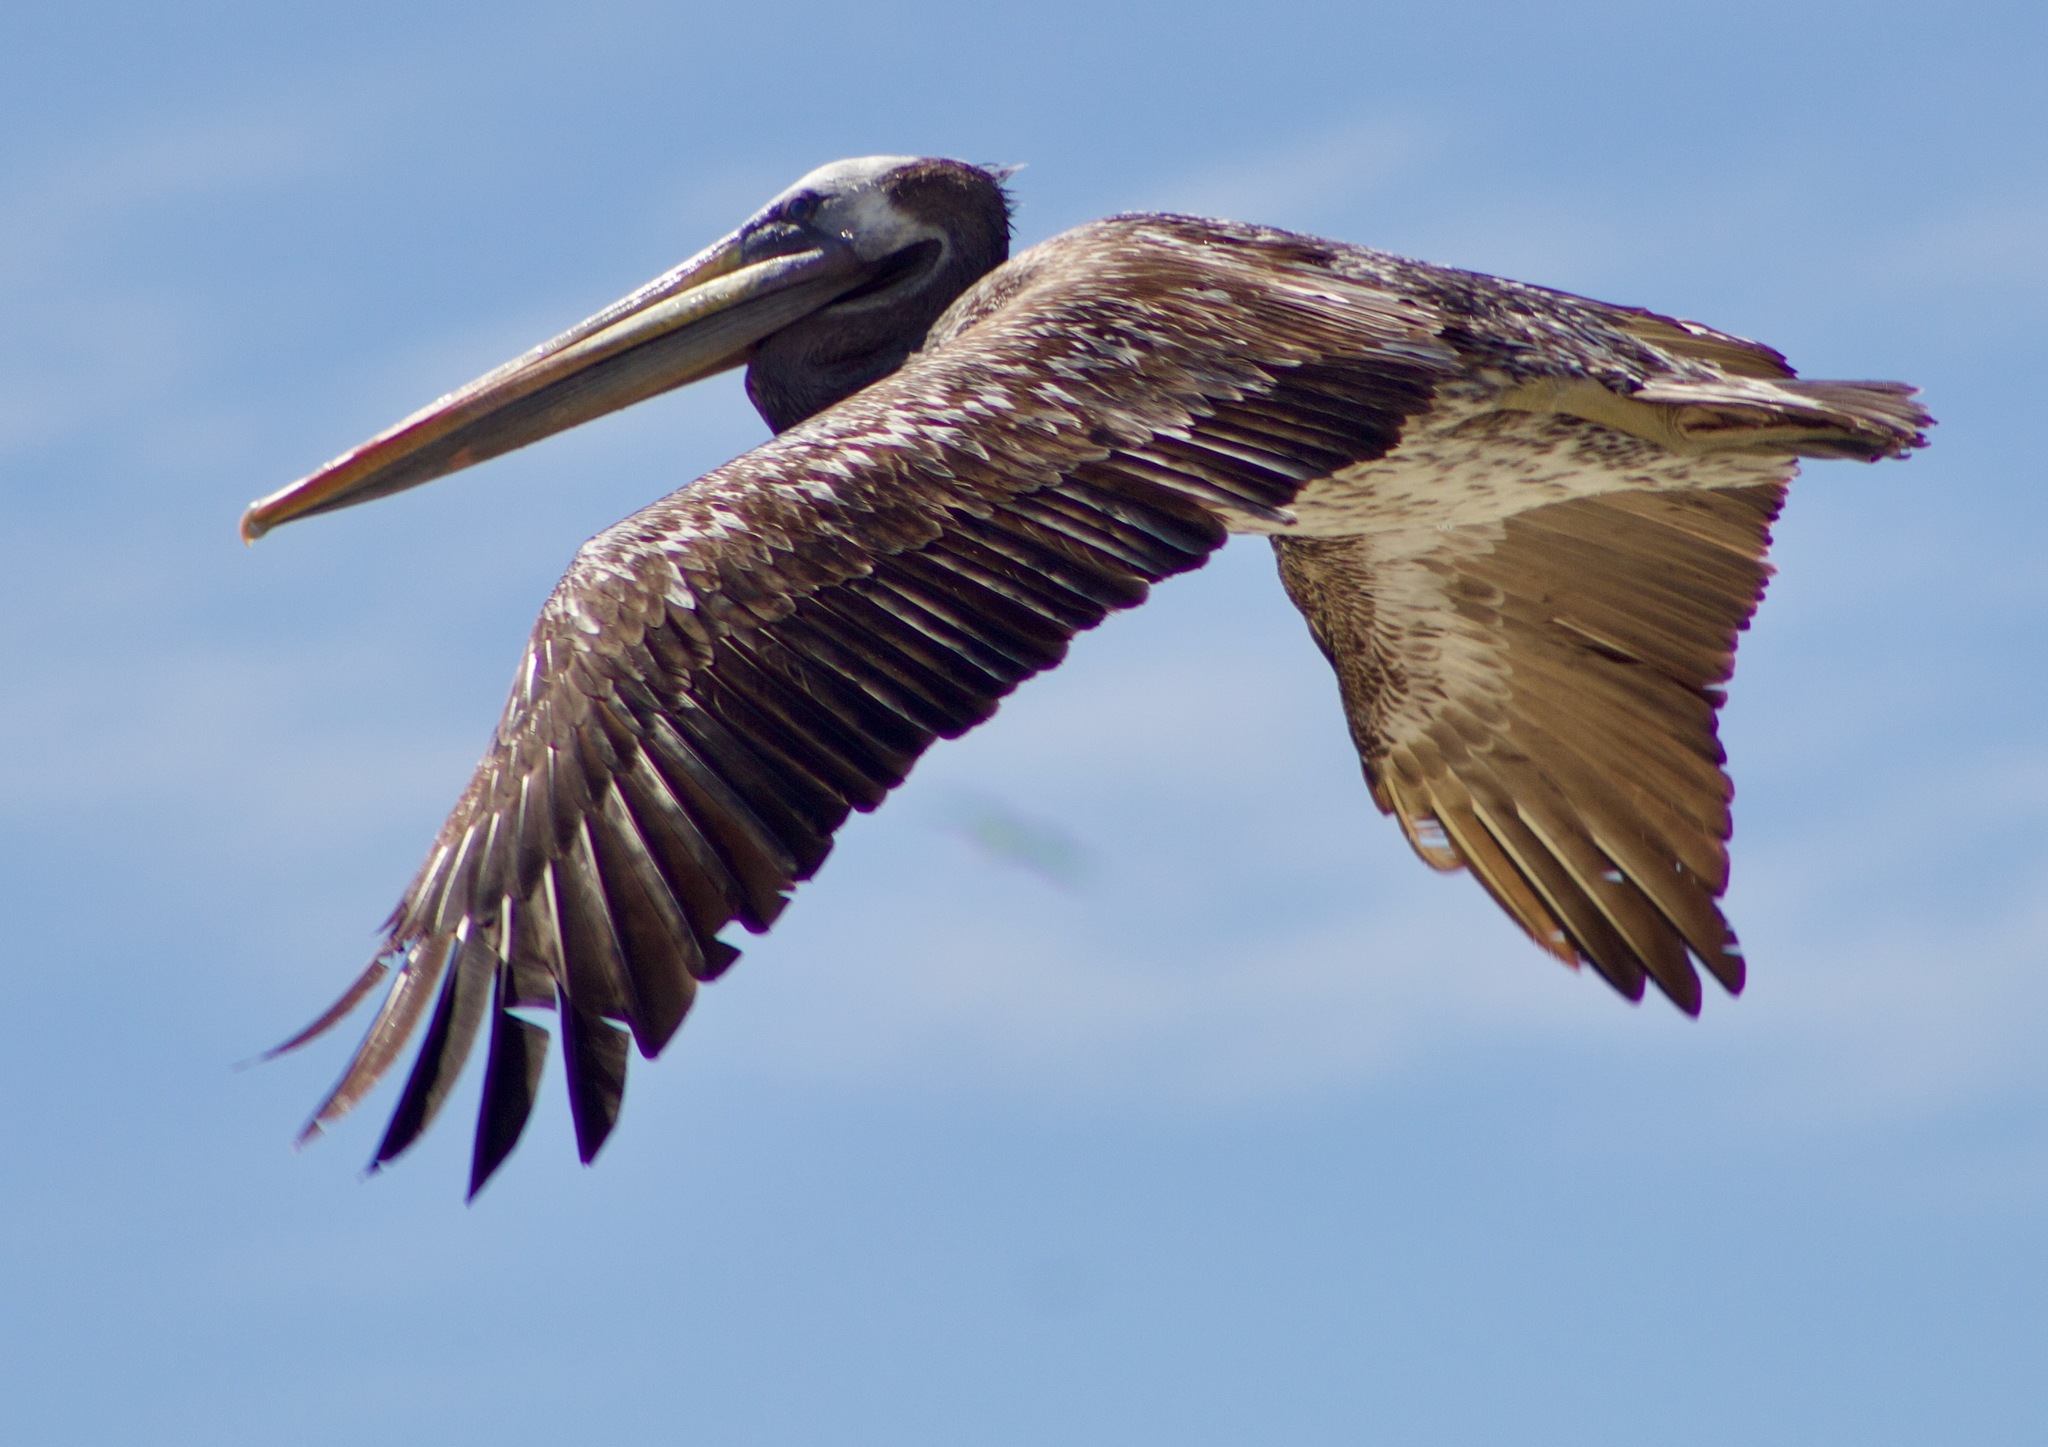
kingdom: Animalia
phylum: Chordata
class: Aves
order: Pelecaniformes
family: Pelecanidae
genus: Pelecanus
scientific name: Pelecanus thagus
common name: Peruvian pelican
